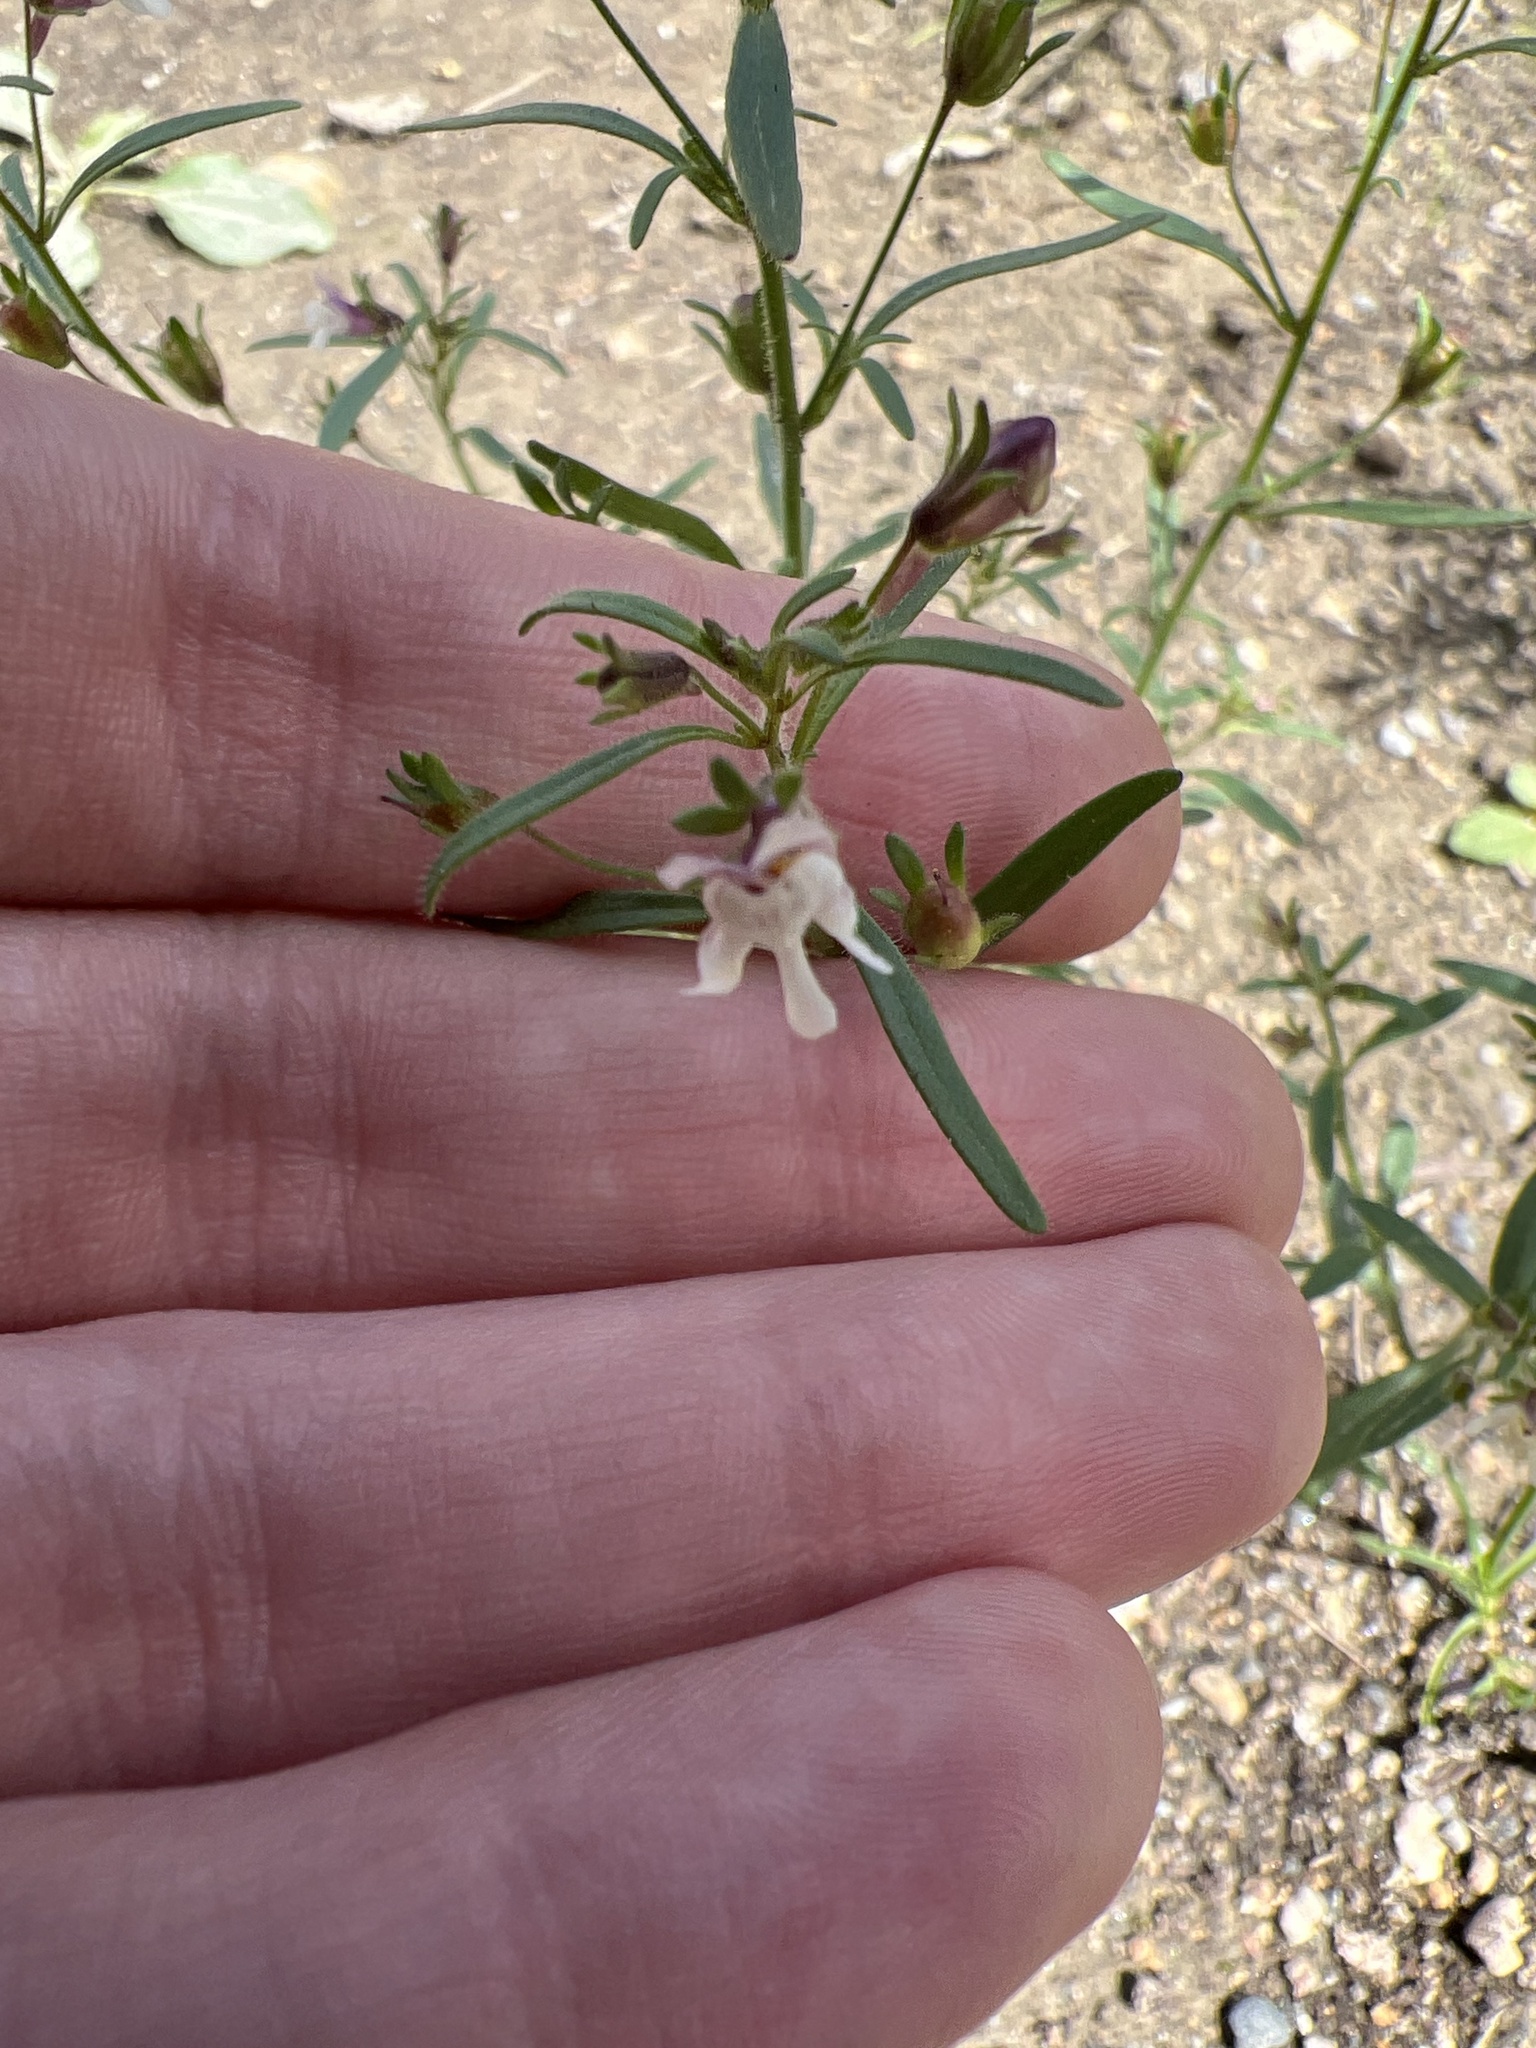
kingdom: Plantae
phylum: Tracheophyta
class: Magnoliopsida
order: Lamiales
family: Plantaginaceae
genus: Chaenorhinum
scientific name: Chaenorhinum minus
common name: Dwarf snapdragon
